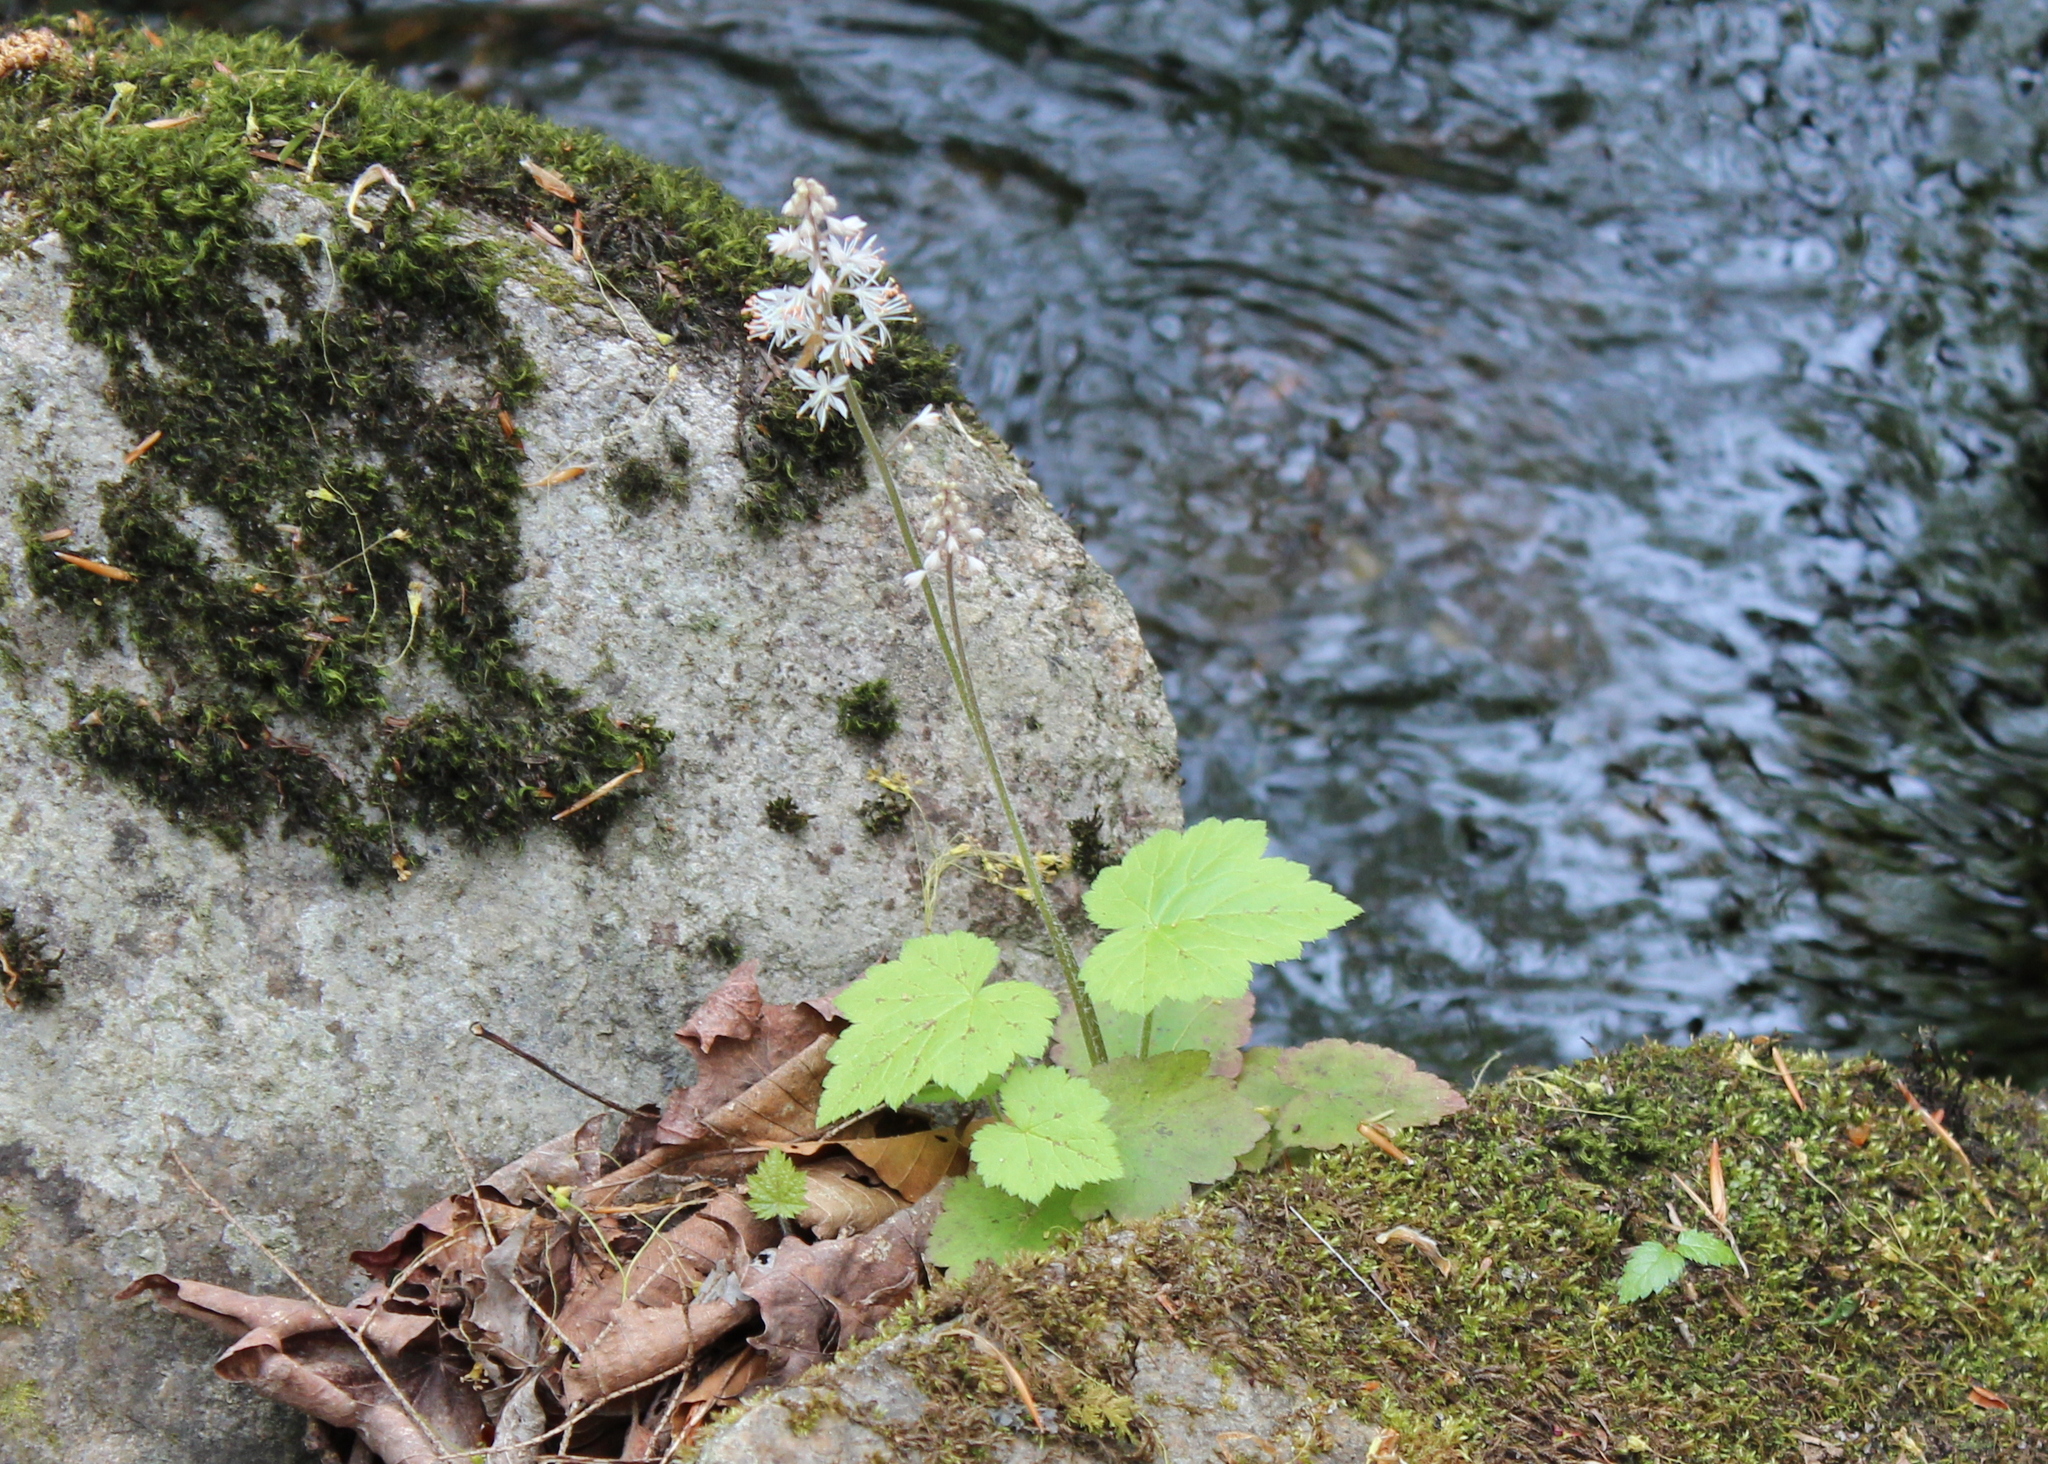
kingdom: Plantae
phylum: Tracheophyta
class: Magnoliopsida
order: Saxifragales
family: Saxifragaceae
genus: Tiarella
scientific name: Tiarella stolonifera
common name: Stoloniferous foamflower
